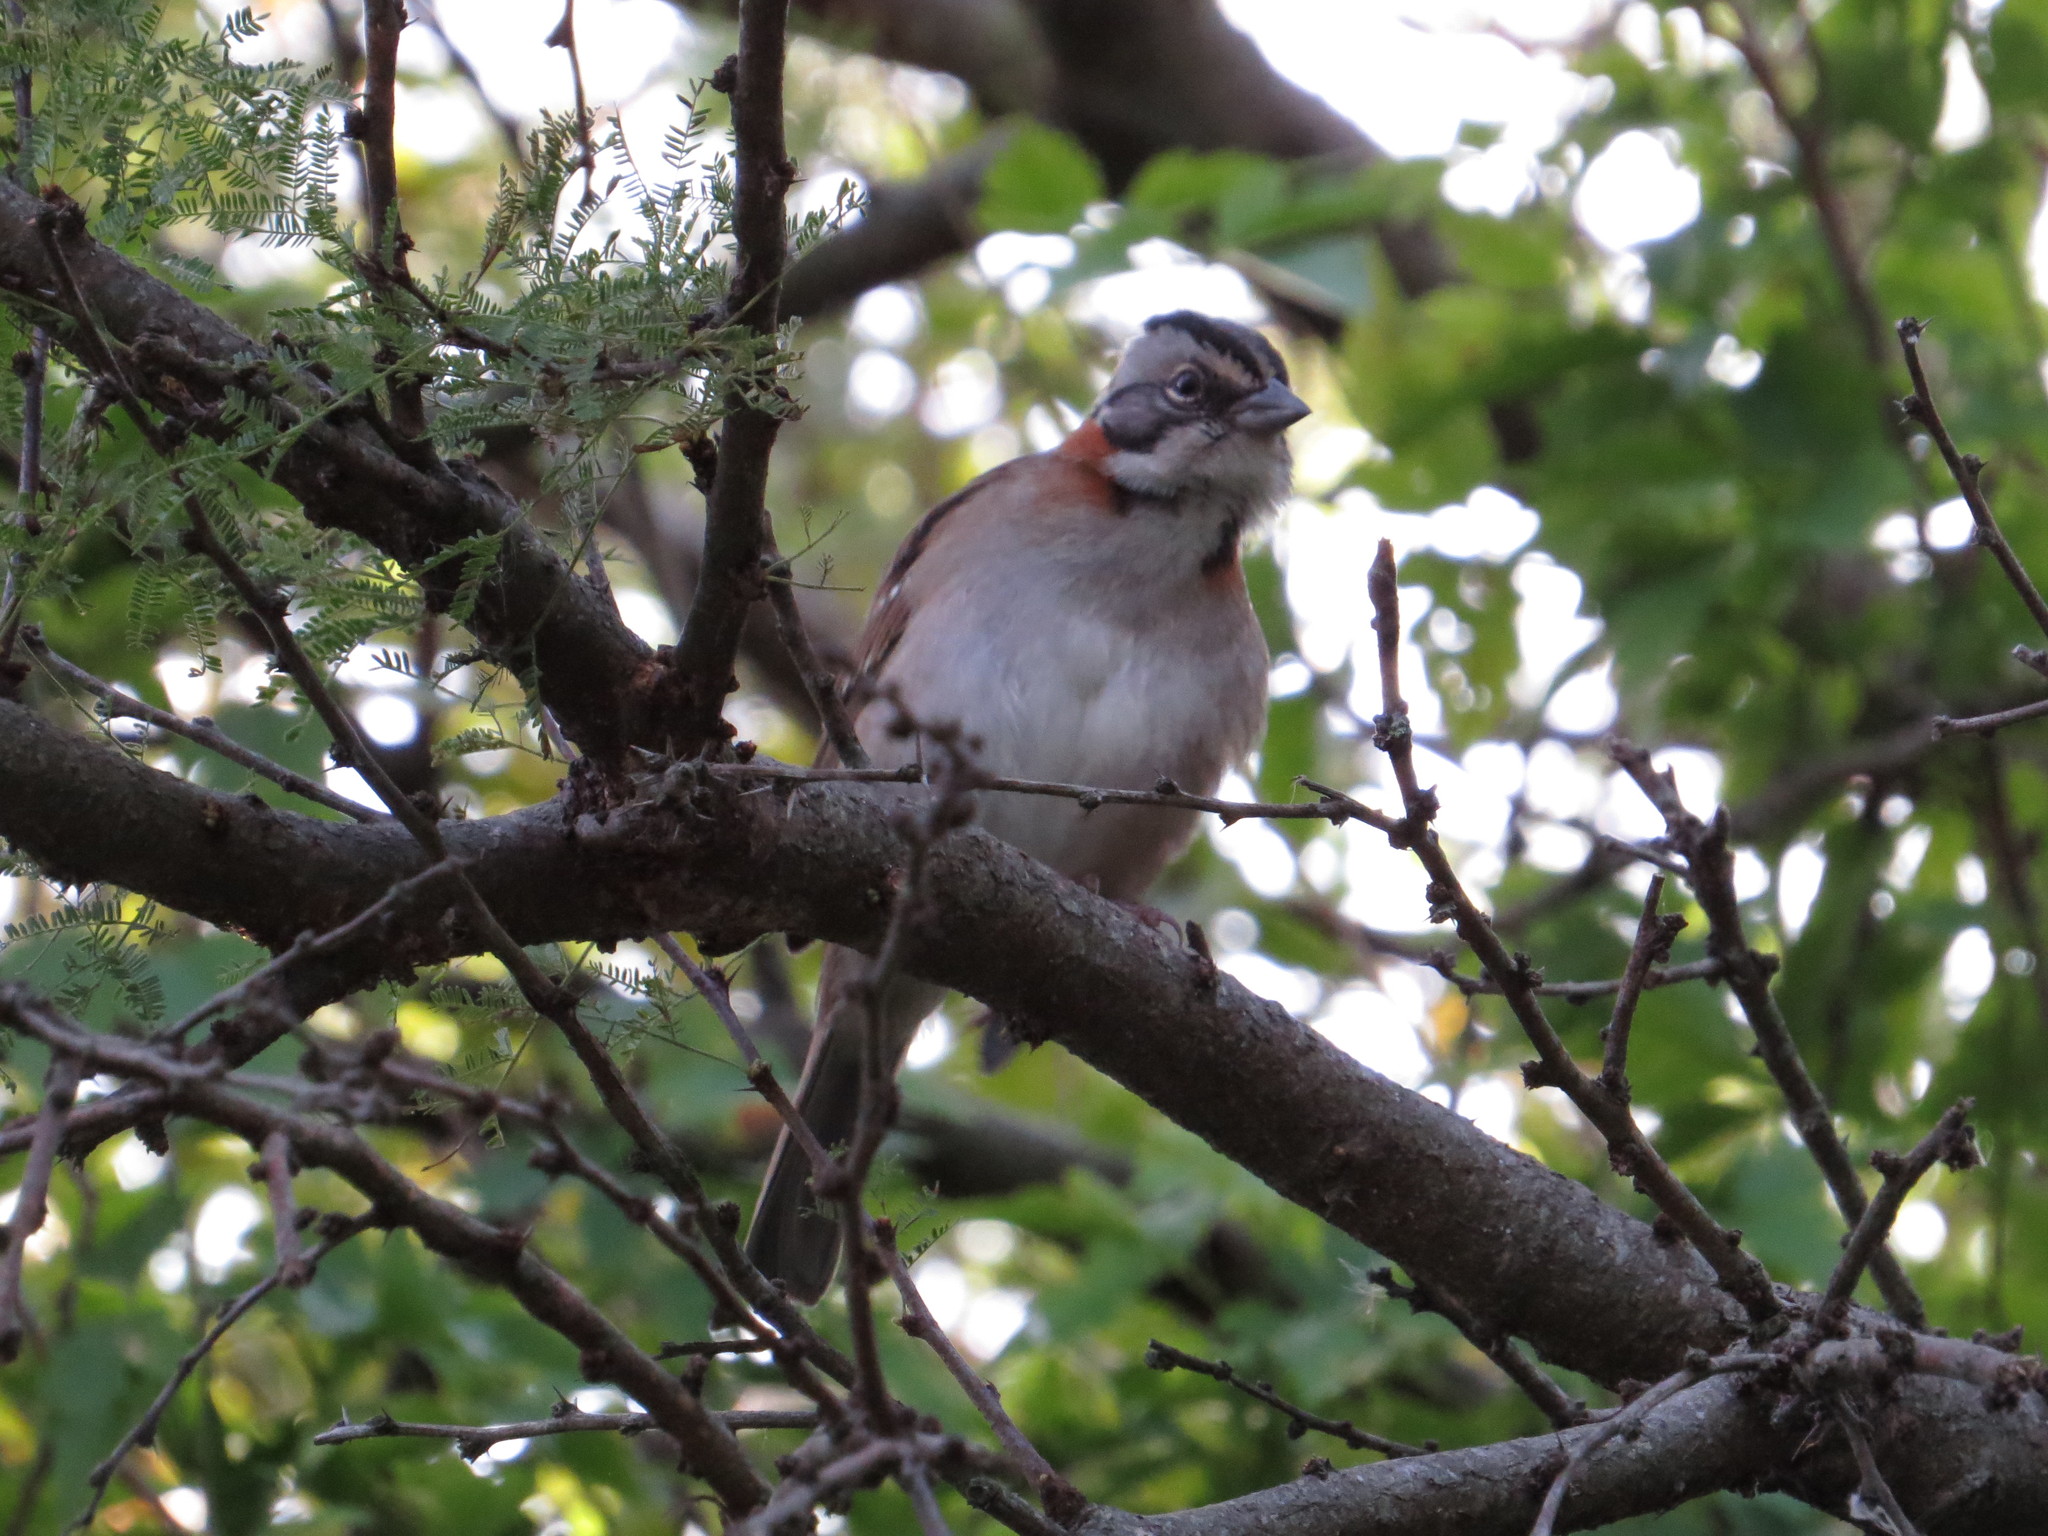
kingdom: Animalia
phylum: Chordata
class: Aves
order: Passeriformes
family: Passerellidae
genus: Zonotrichia
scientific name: Zonotrichia capensis
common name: Rufous-collared sparrow
